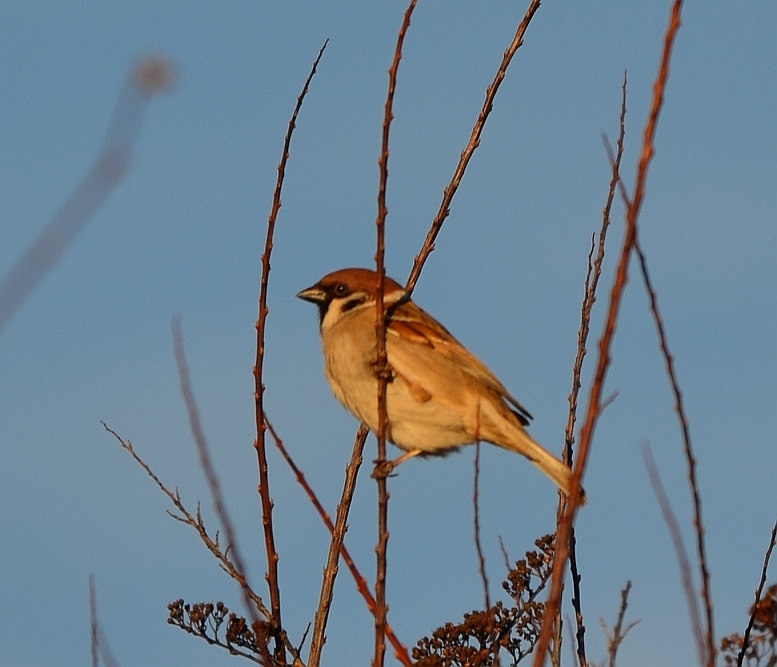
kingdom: Animalia
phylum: Chordata
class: Aves
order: Passeriformes
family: Passeridae
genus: Passer
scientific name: Passer montanus
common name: Eurasian tree sparrow
